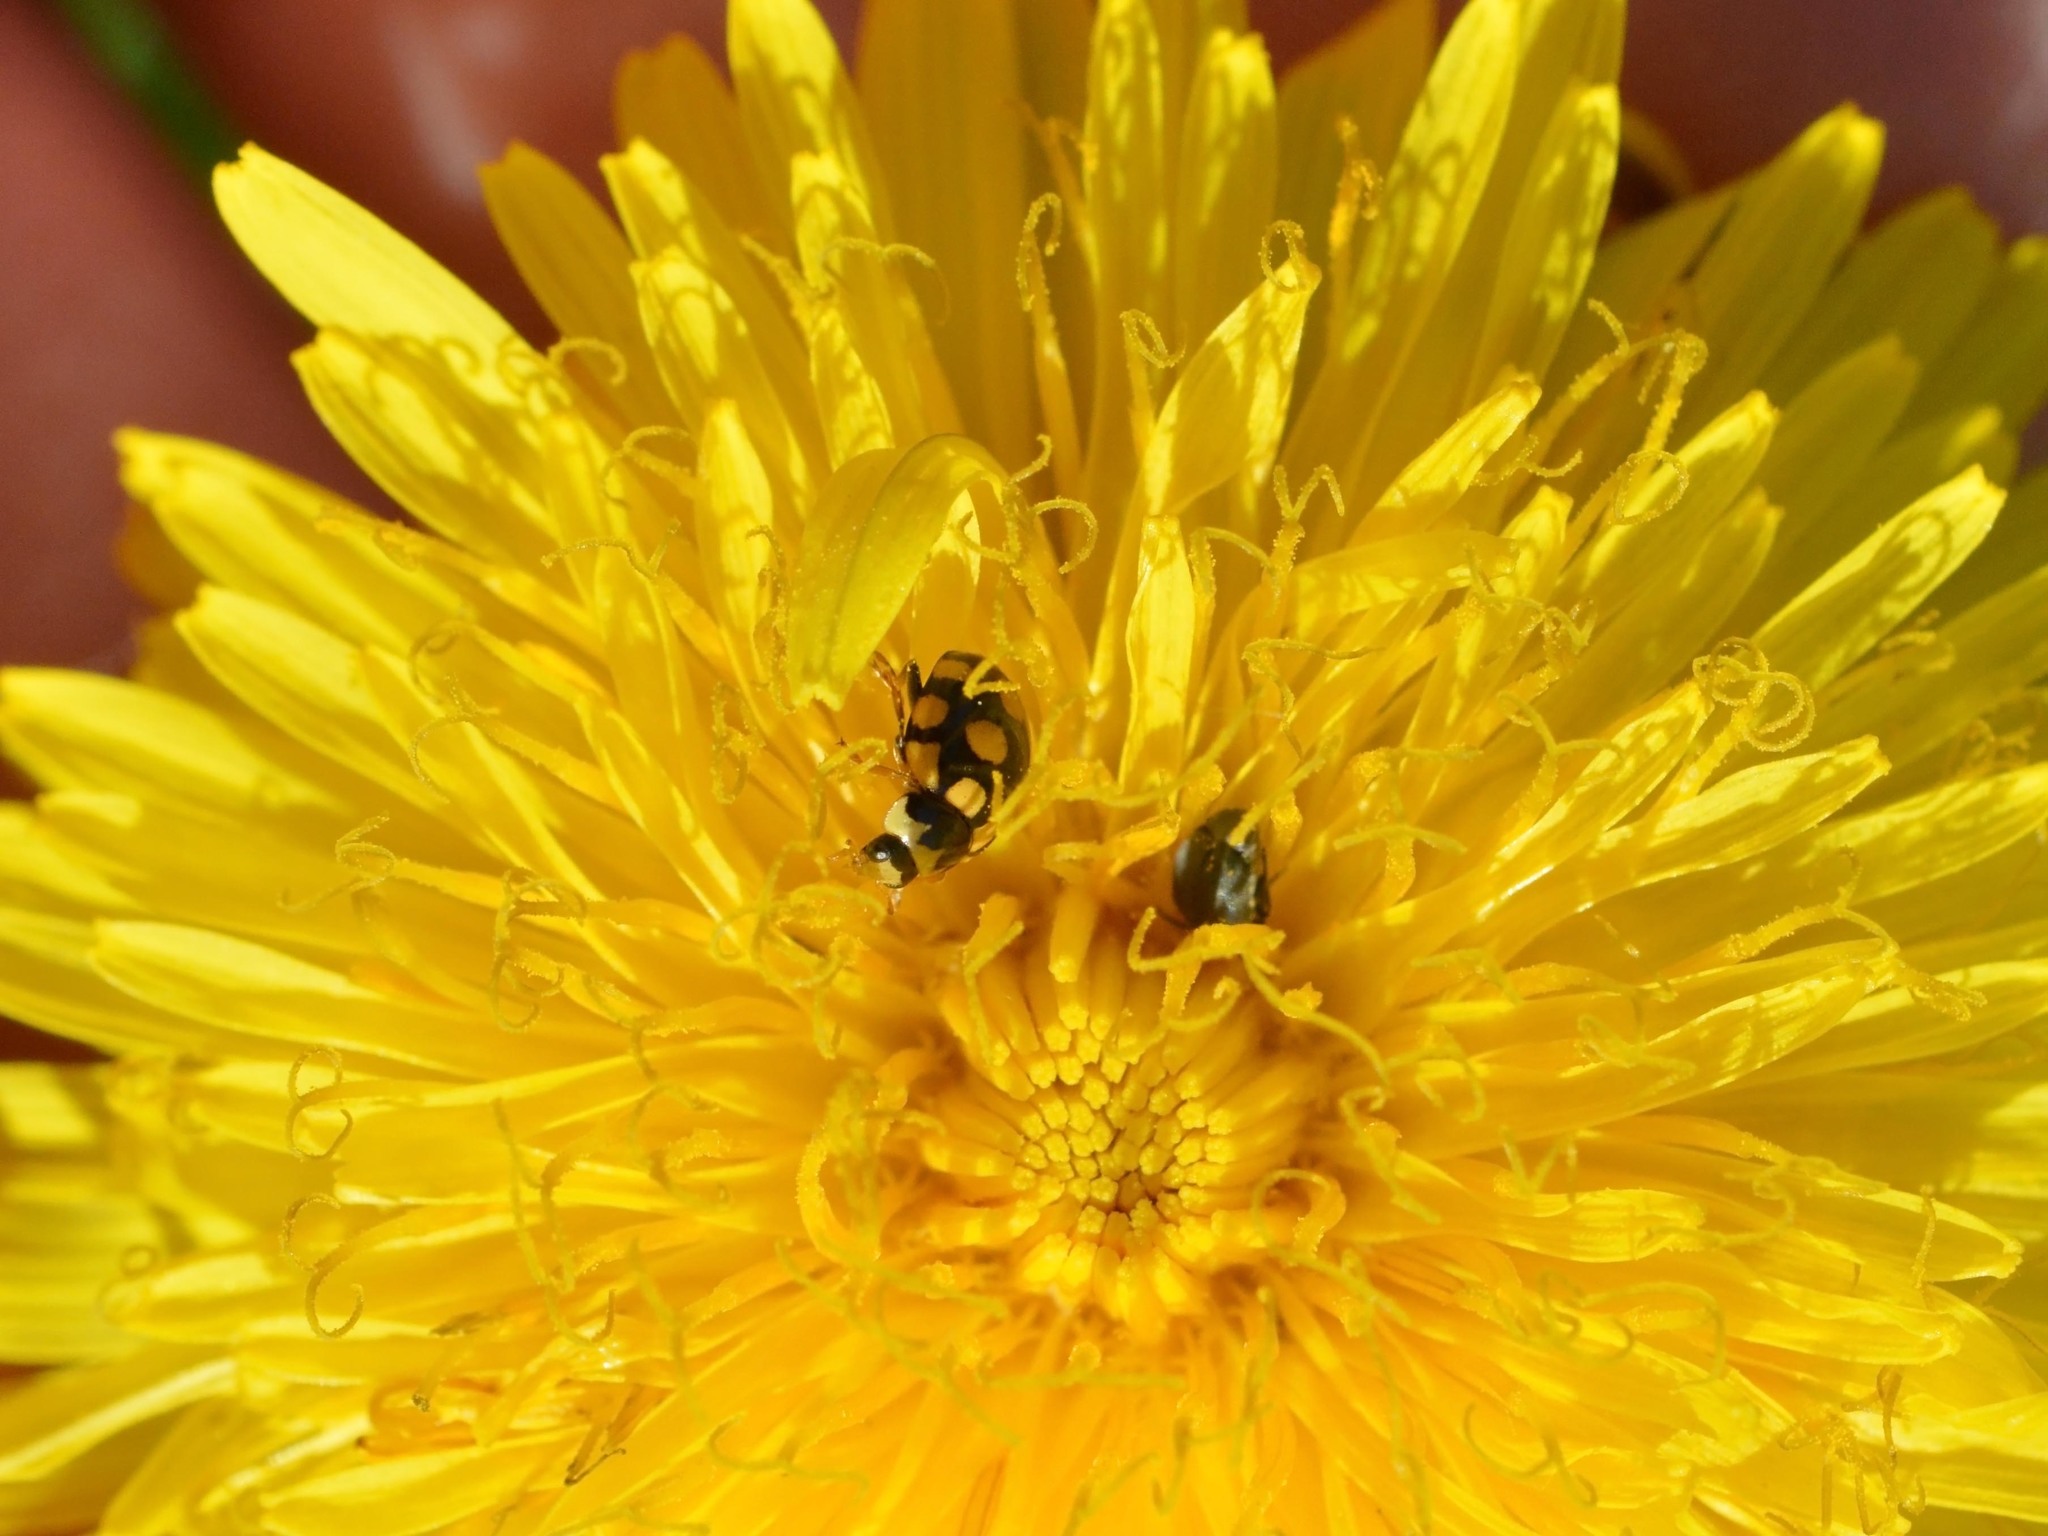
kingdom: Animalia
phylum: Arthropoda
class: Insecta
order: Coleoptera
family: Coccinellidae
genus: Coccinula
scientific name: Coccinula quatuordecimpustulata
